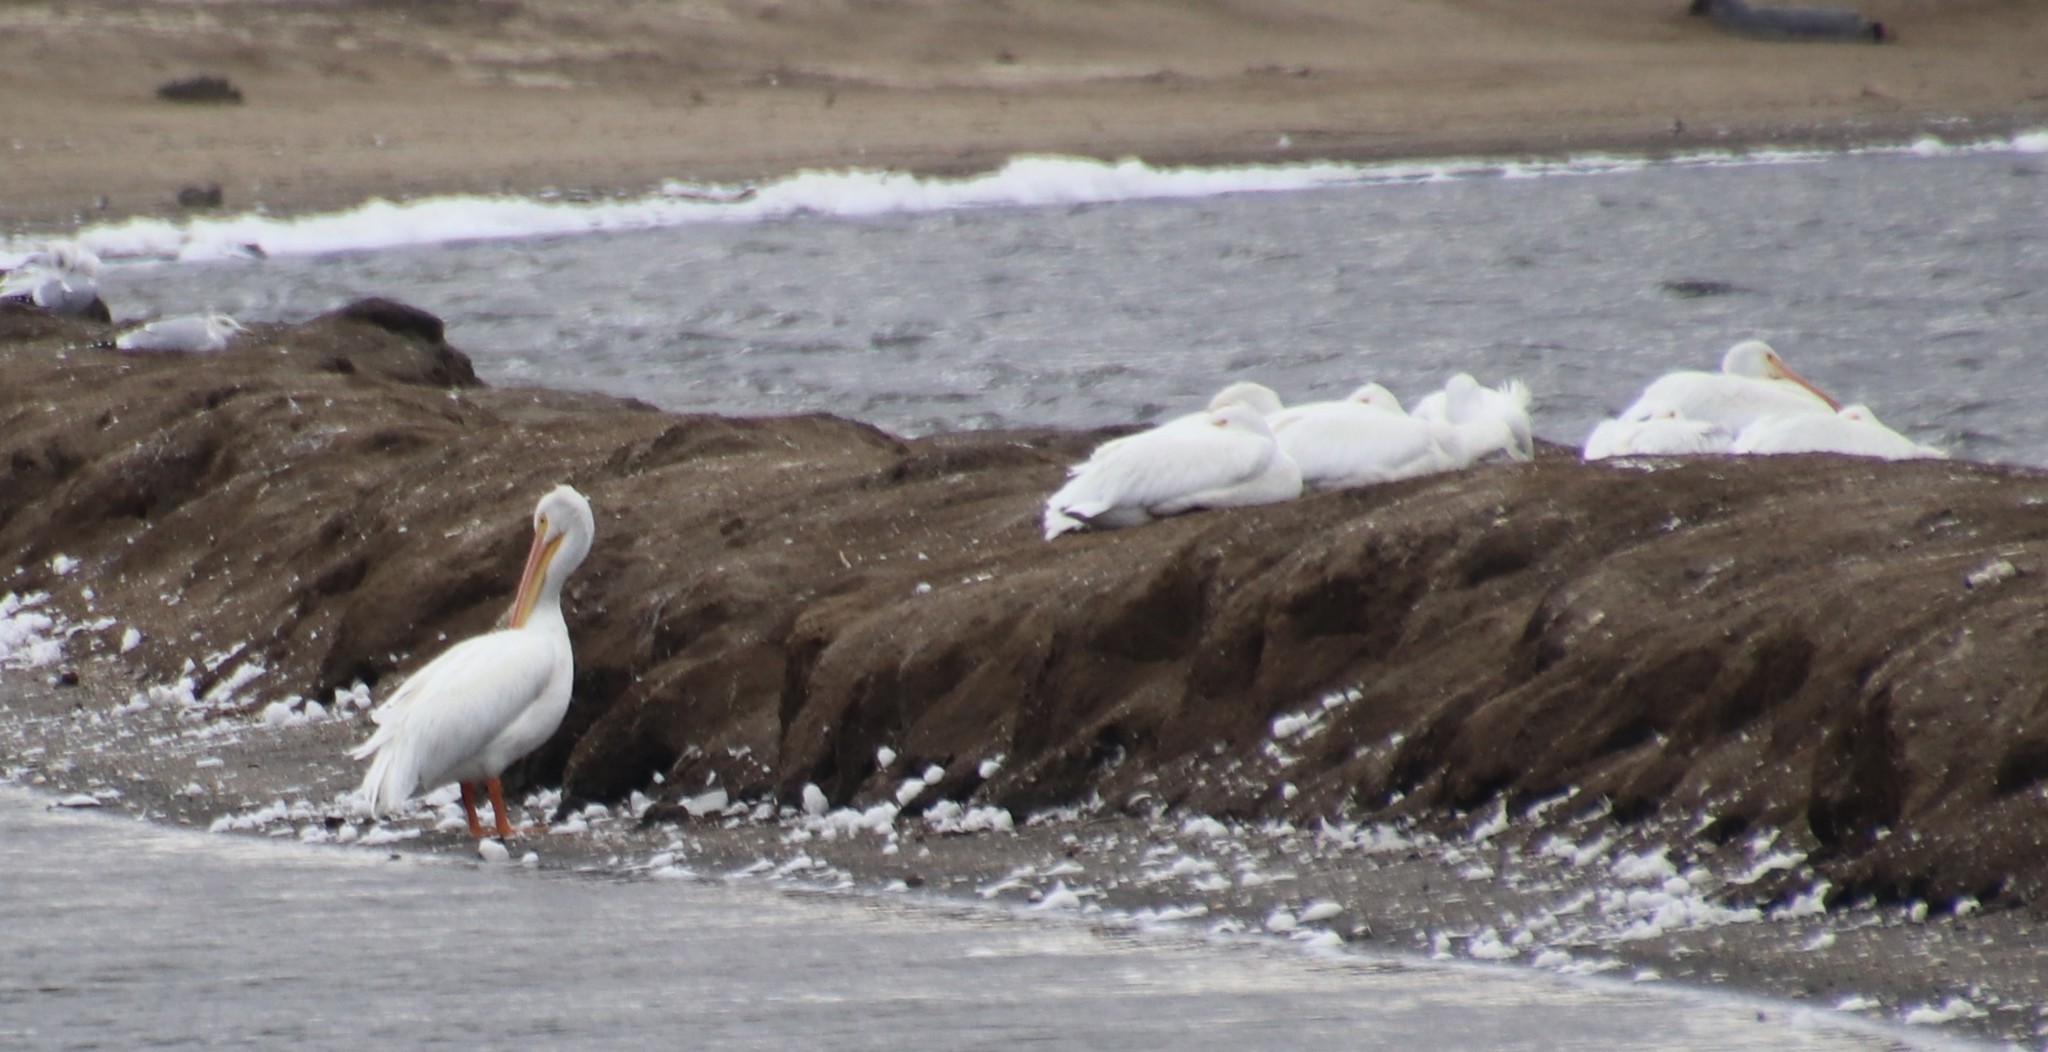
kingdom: Animalia
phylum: Chordata
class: Aves
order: Pelecaniformes
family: Pelecanidae
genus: Pelecanus
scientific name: Pelecanus erythrorhynchos
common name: American white pelican
